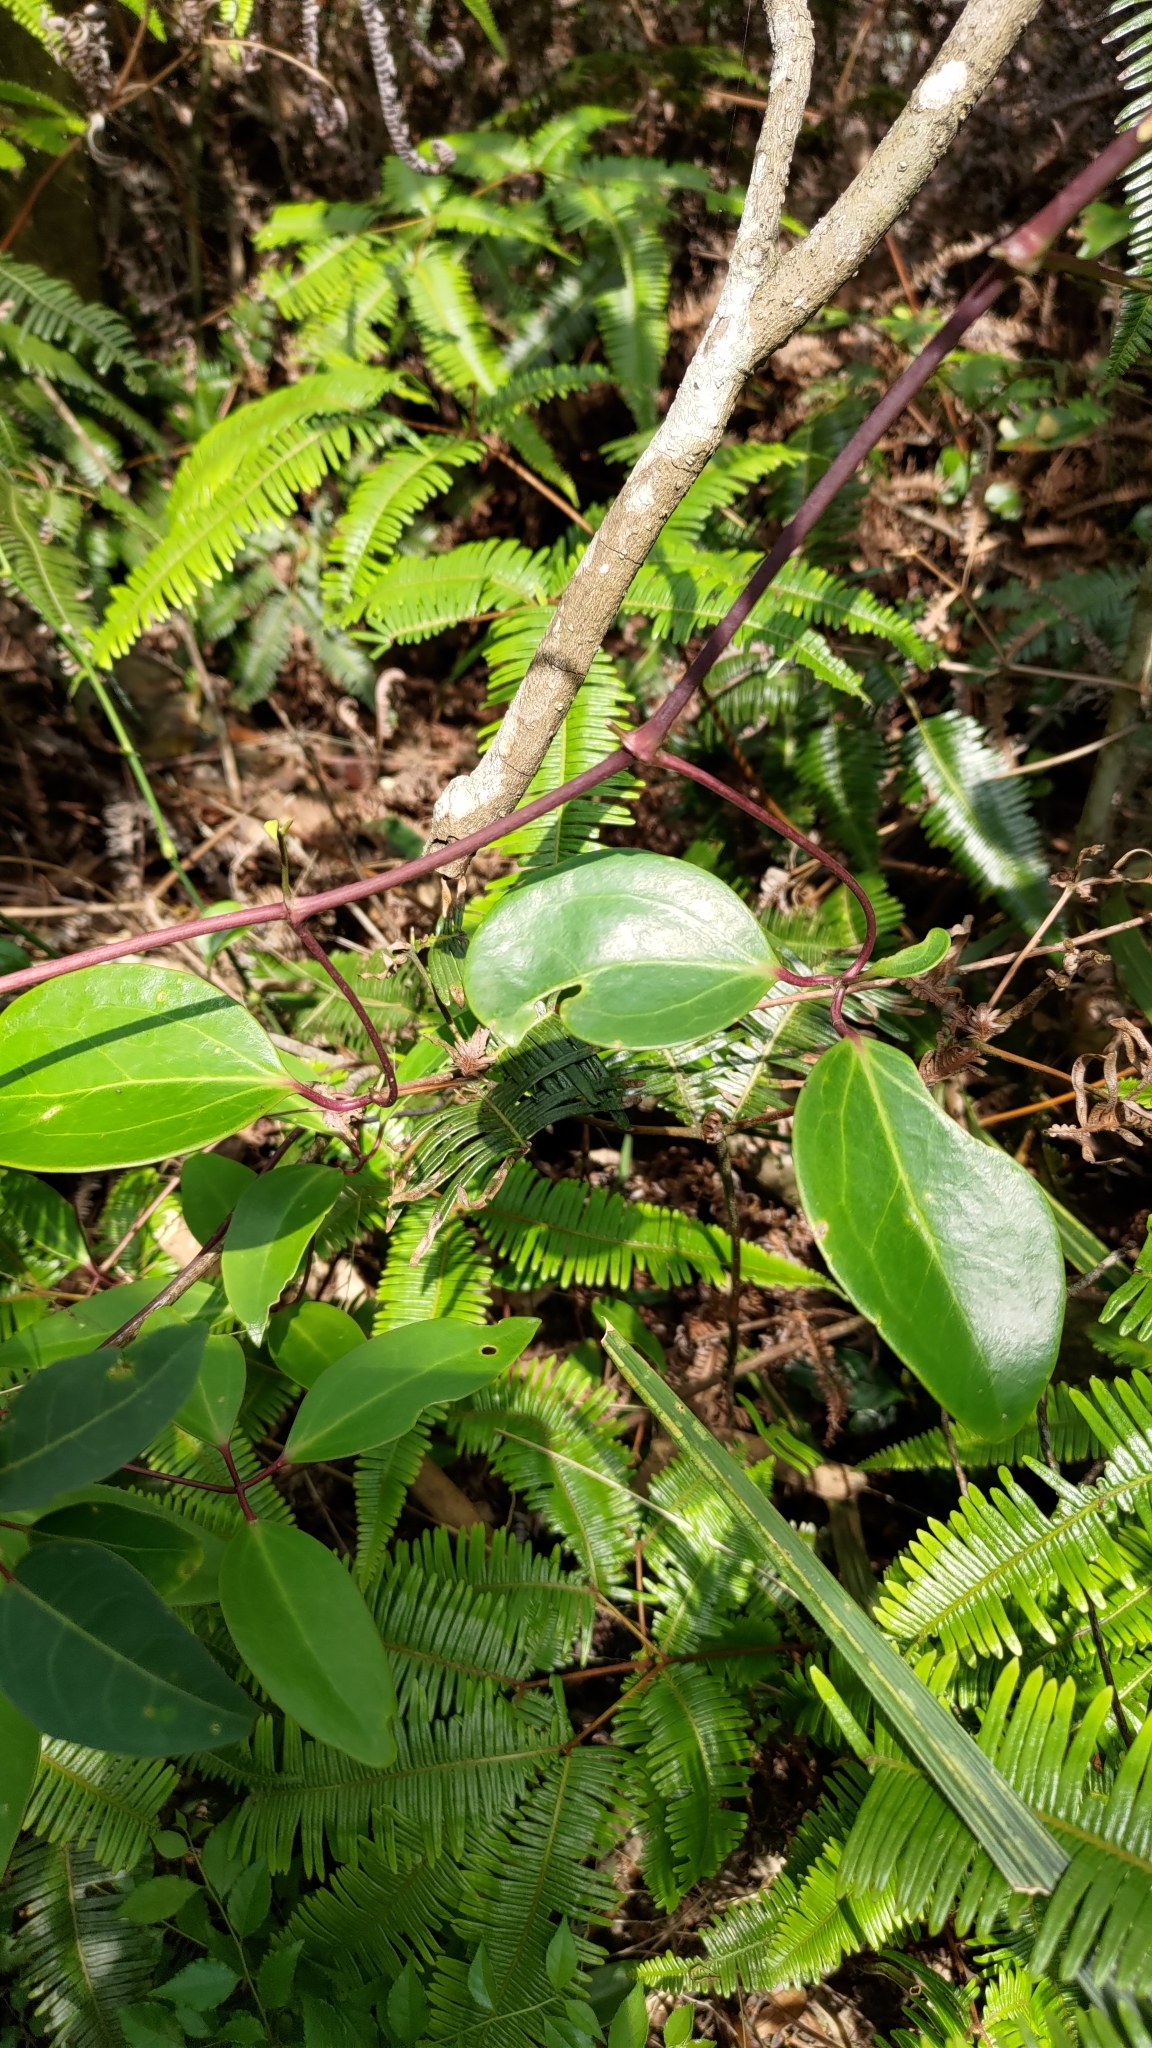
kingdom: Plantae
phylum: Tracheophyta
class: Magnoliopsida
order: Ranunculales
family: Ranunculaceae
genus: Clematis
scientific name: Clematis crassifolia
